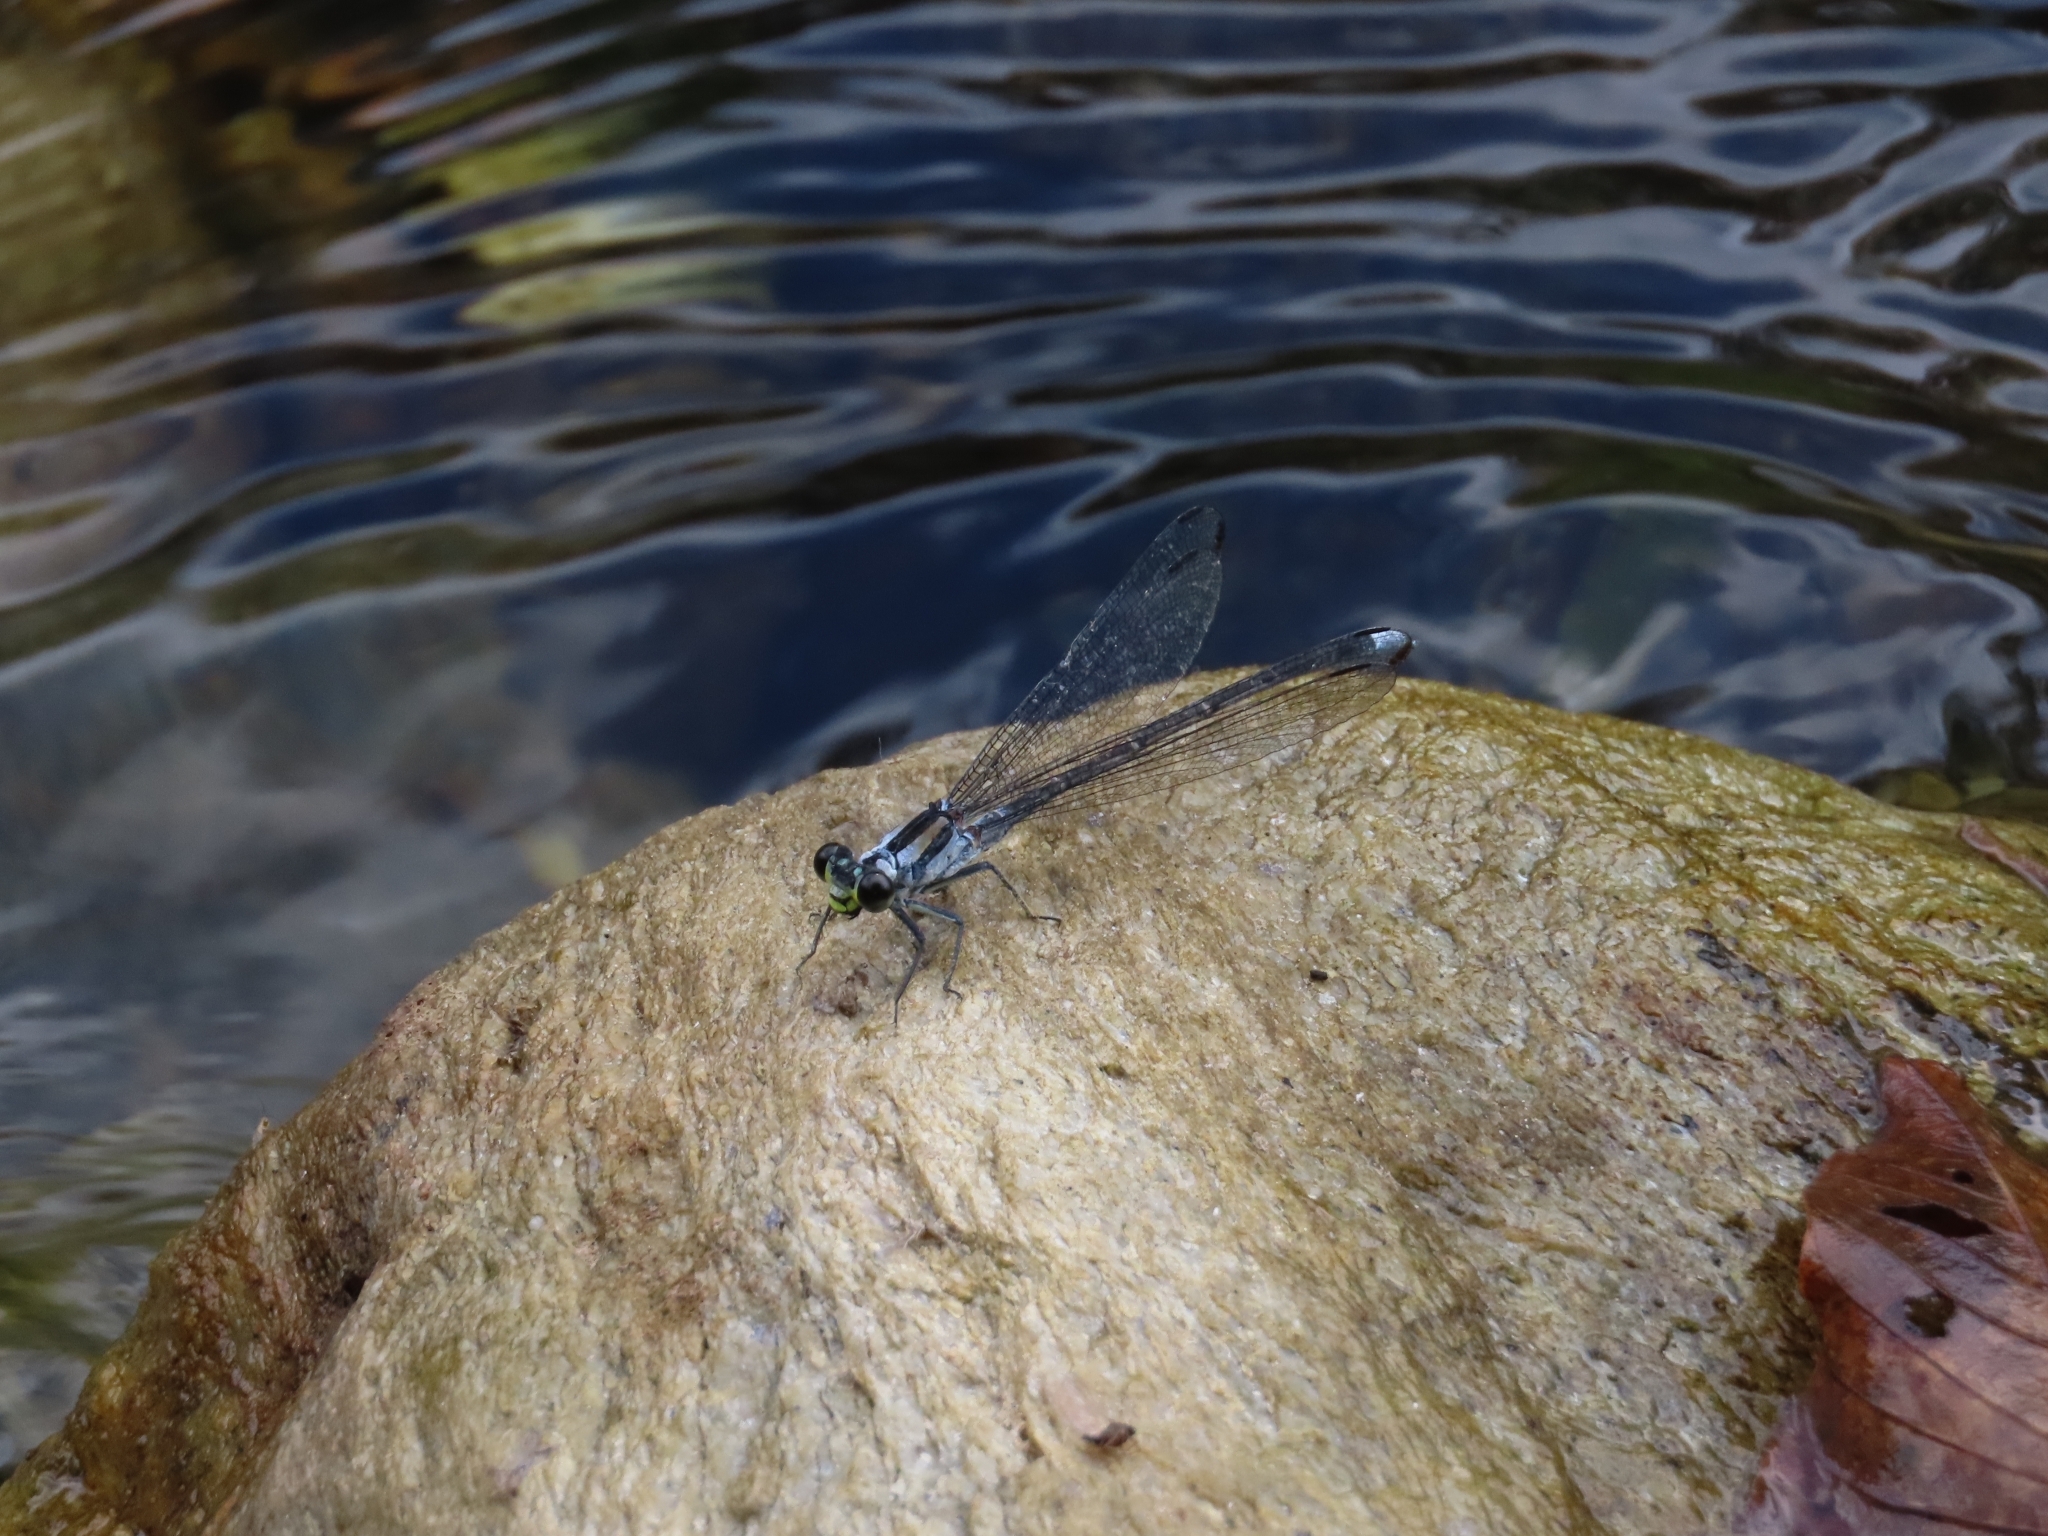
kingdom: Animalia
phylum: Arthropoda
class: Insecta
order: Odonata
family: Euphaeidae
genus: Anisopleura
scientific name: Anisopleura lestoides
